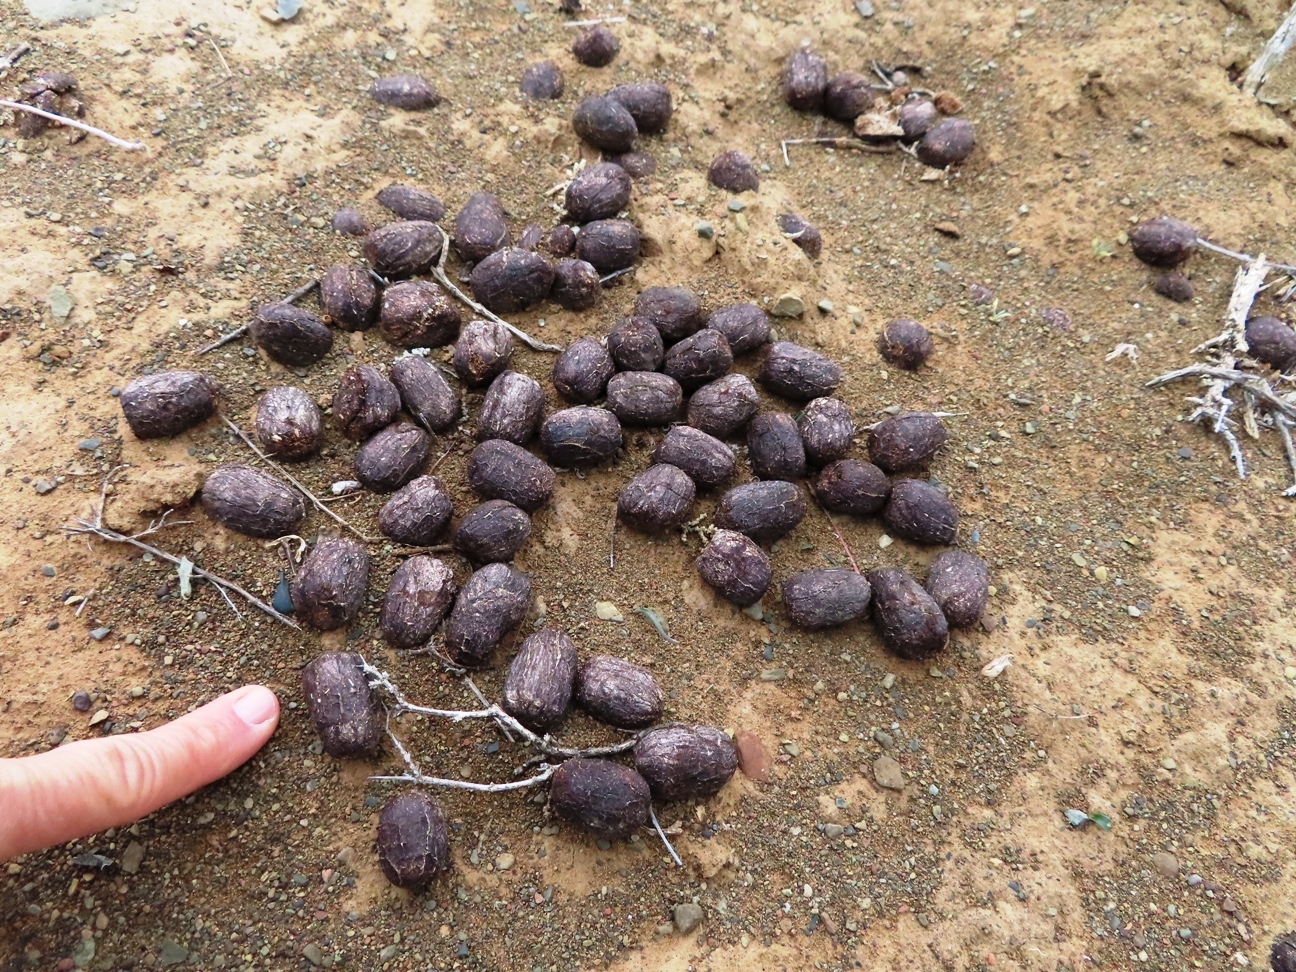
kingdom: Animalia
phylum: Chordata
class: Mammalia
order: Artiodactyla
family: Bovidae
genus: Taurotragus
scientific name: Taurotragus oryx
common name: Common eland
